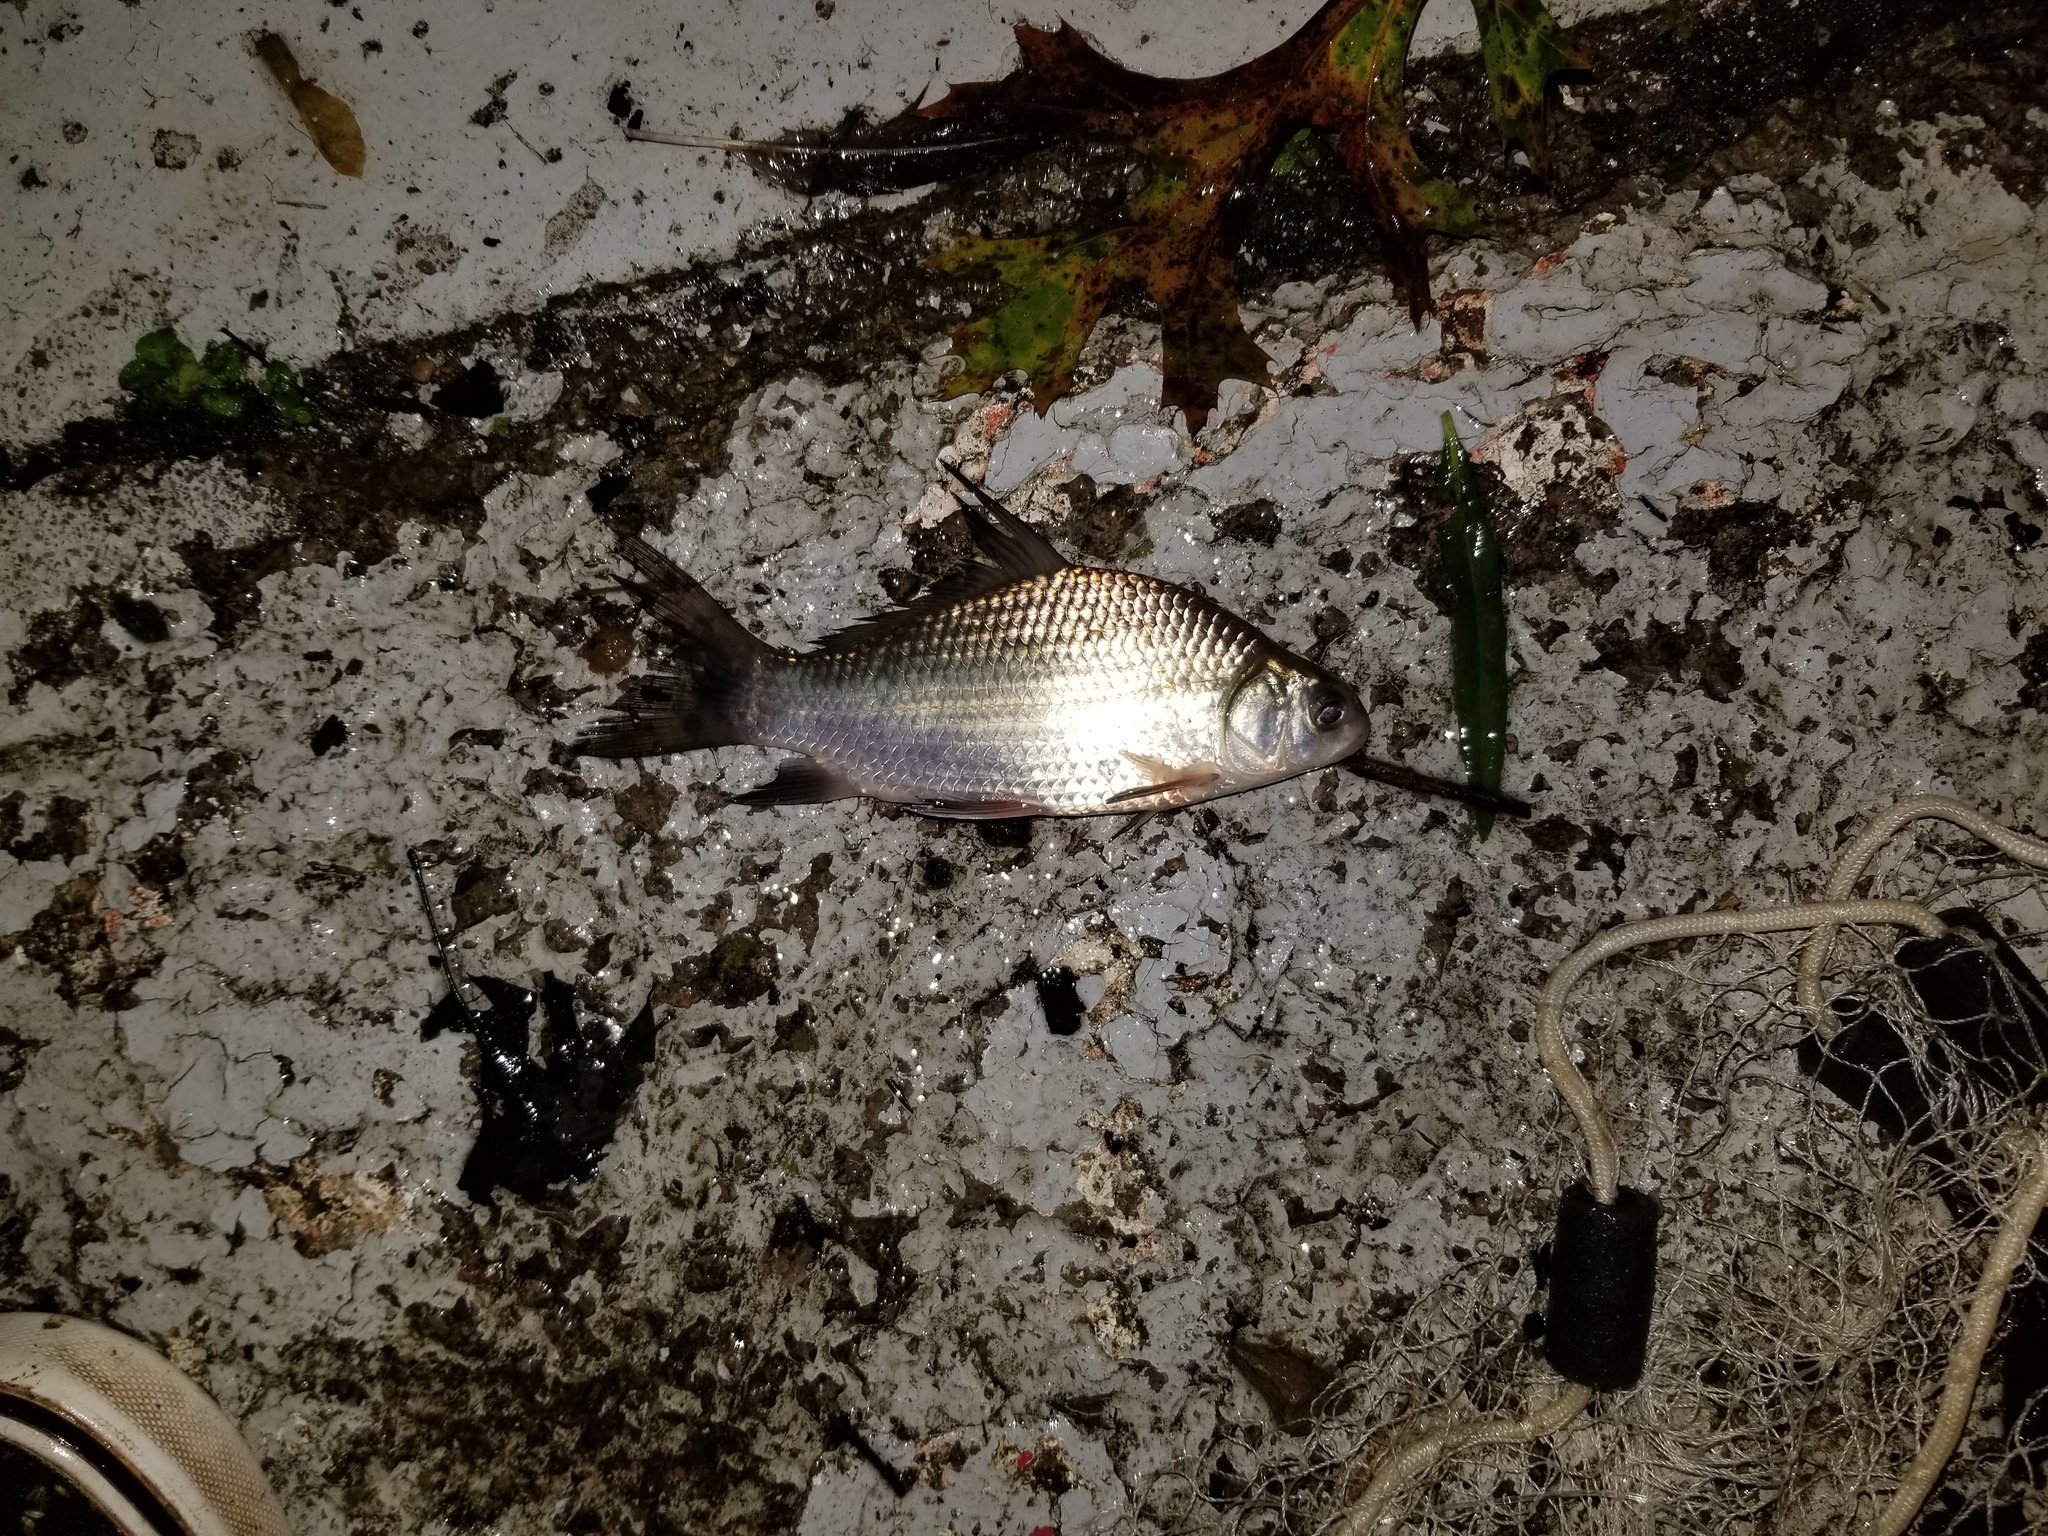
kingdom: Animalia
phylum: Chordata
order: Cypriniformes
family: Catostomidae
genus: Ictiobus
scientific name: Ictiobus bubalus
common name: Smallmouth buffalo
